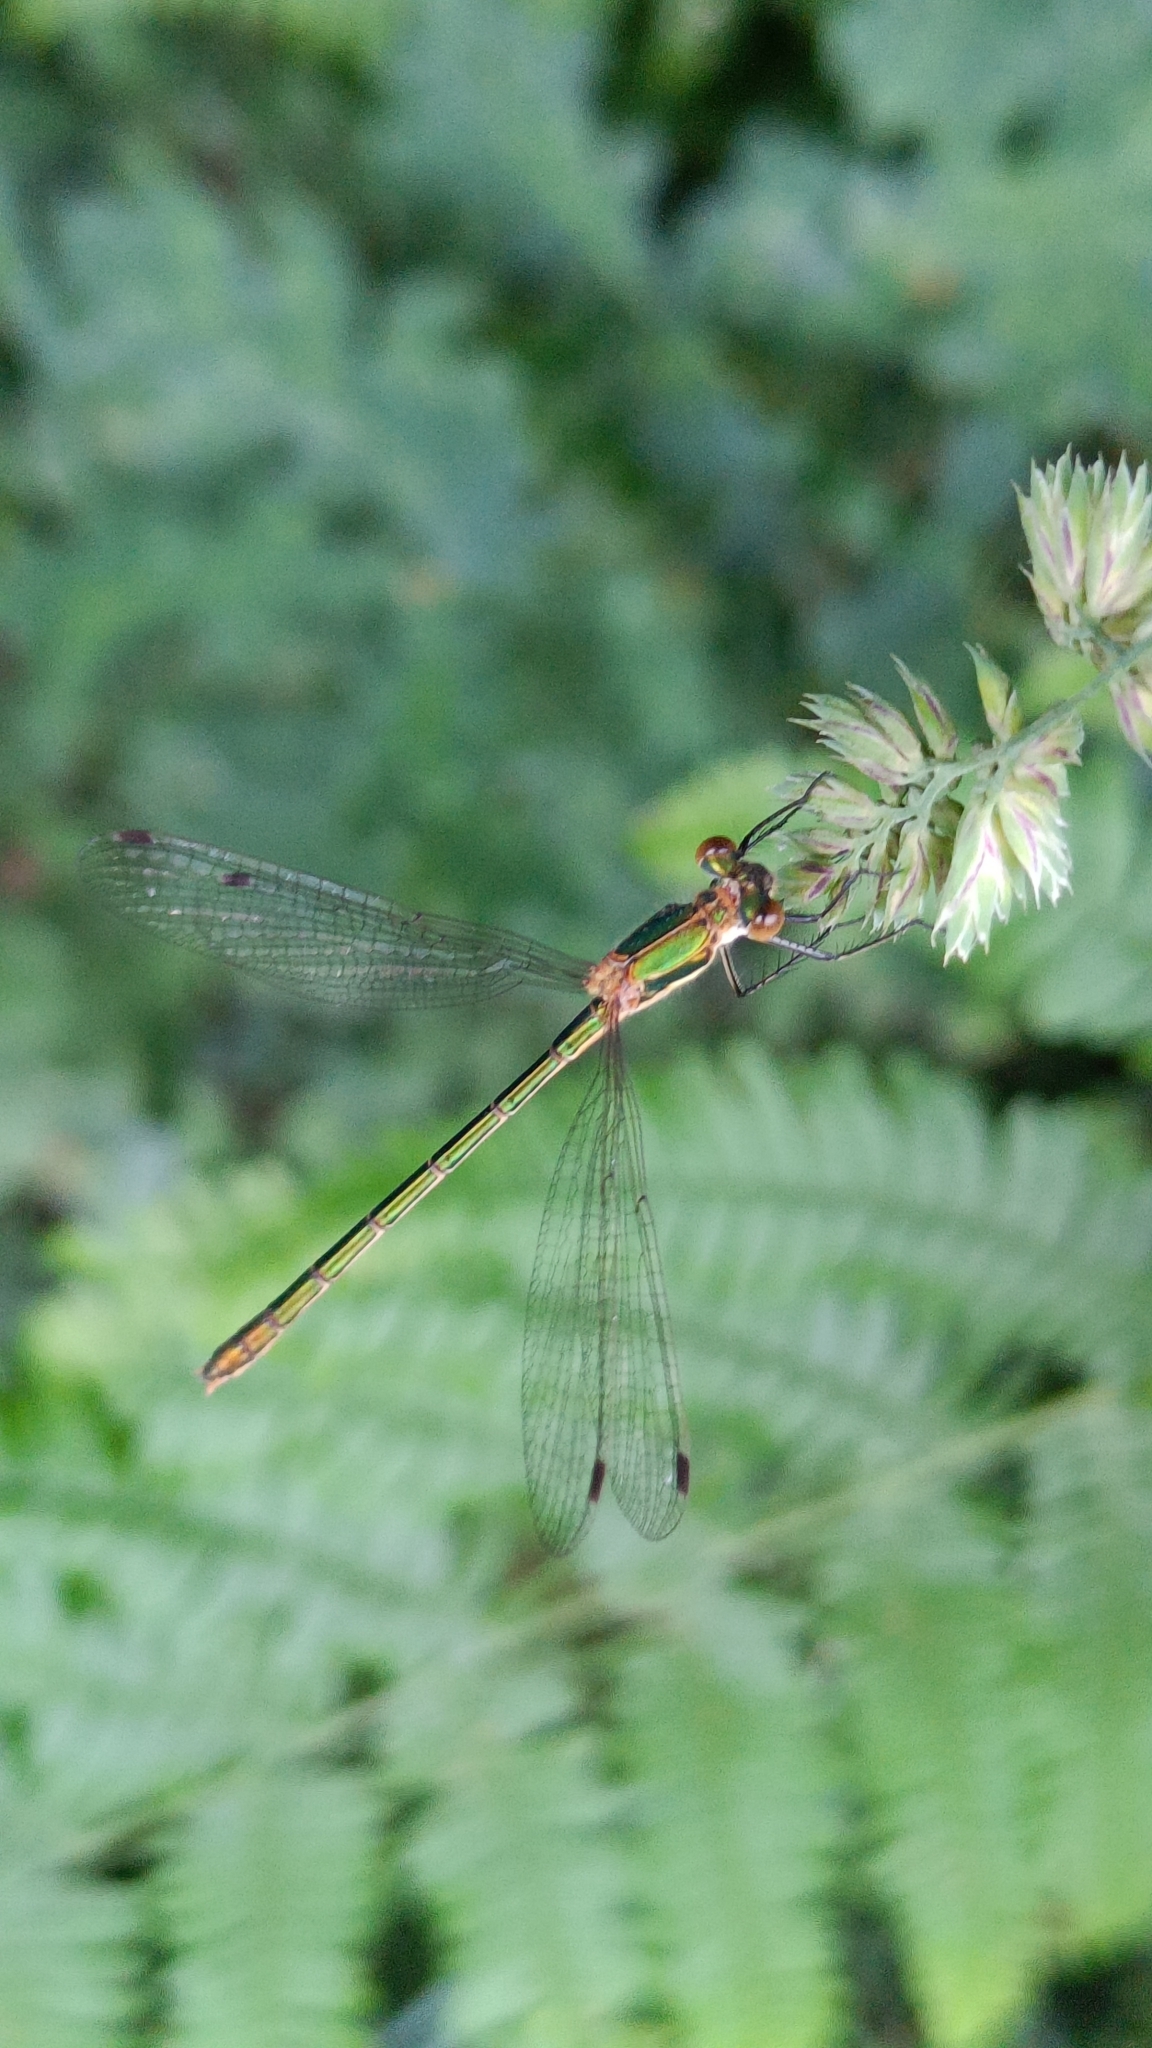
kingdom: Animalia
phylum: Arthropoda
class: Insecta
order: Odonata
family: Lestidae
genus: Lestes
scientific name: Lestes sponsa
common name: Common spreadwing
